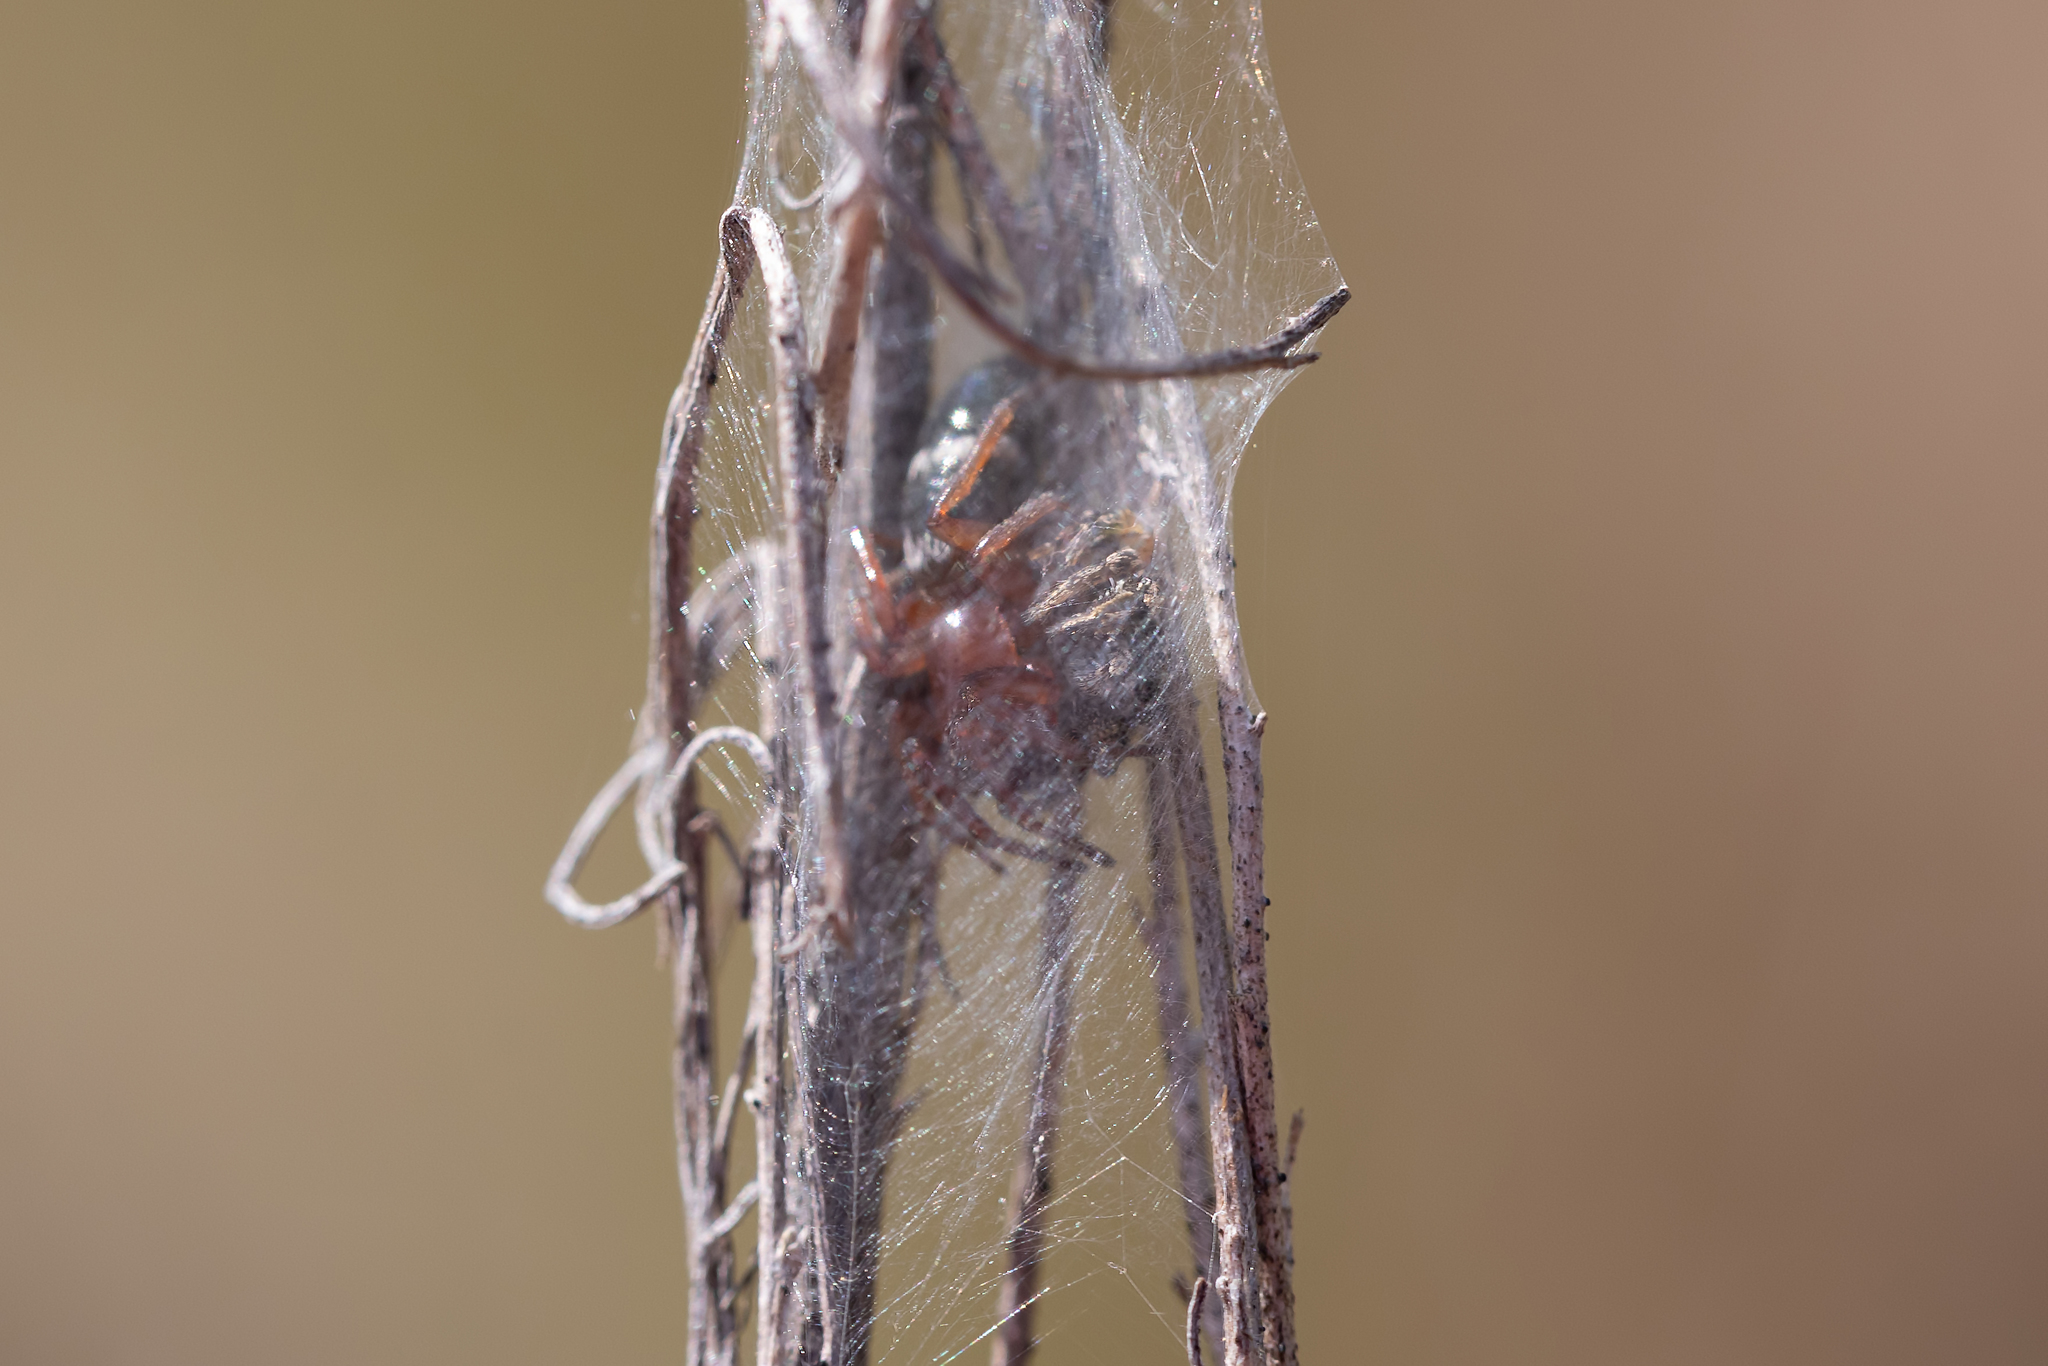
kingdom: Animalia
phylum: Arthropoda
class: Arachnida
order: Araneae
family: Gnaphosidae
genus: Sergiolus
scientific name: Sergiolus
